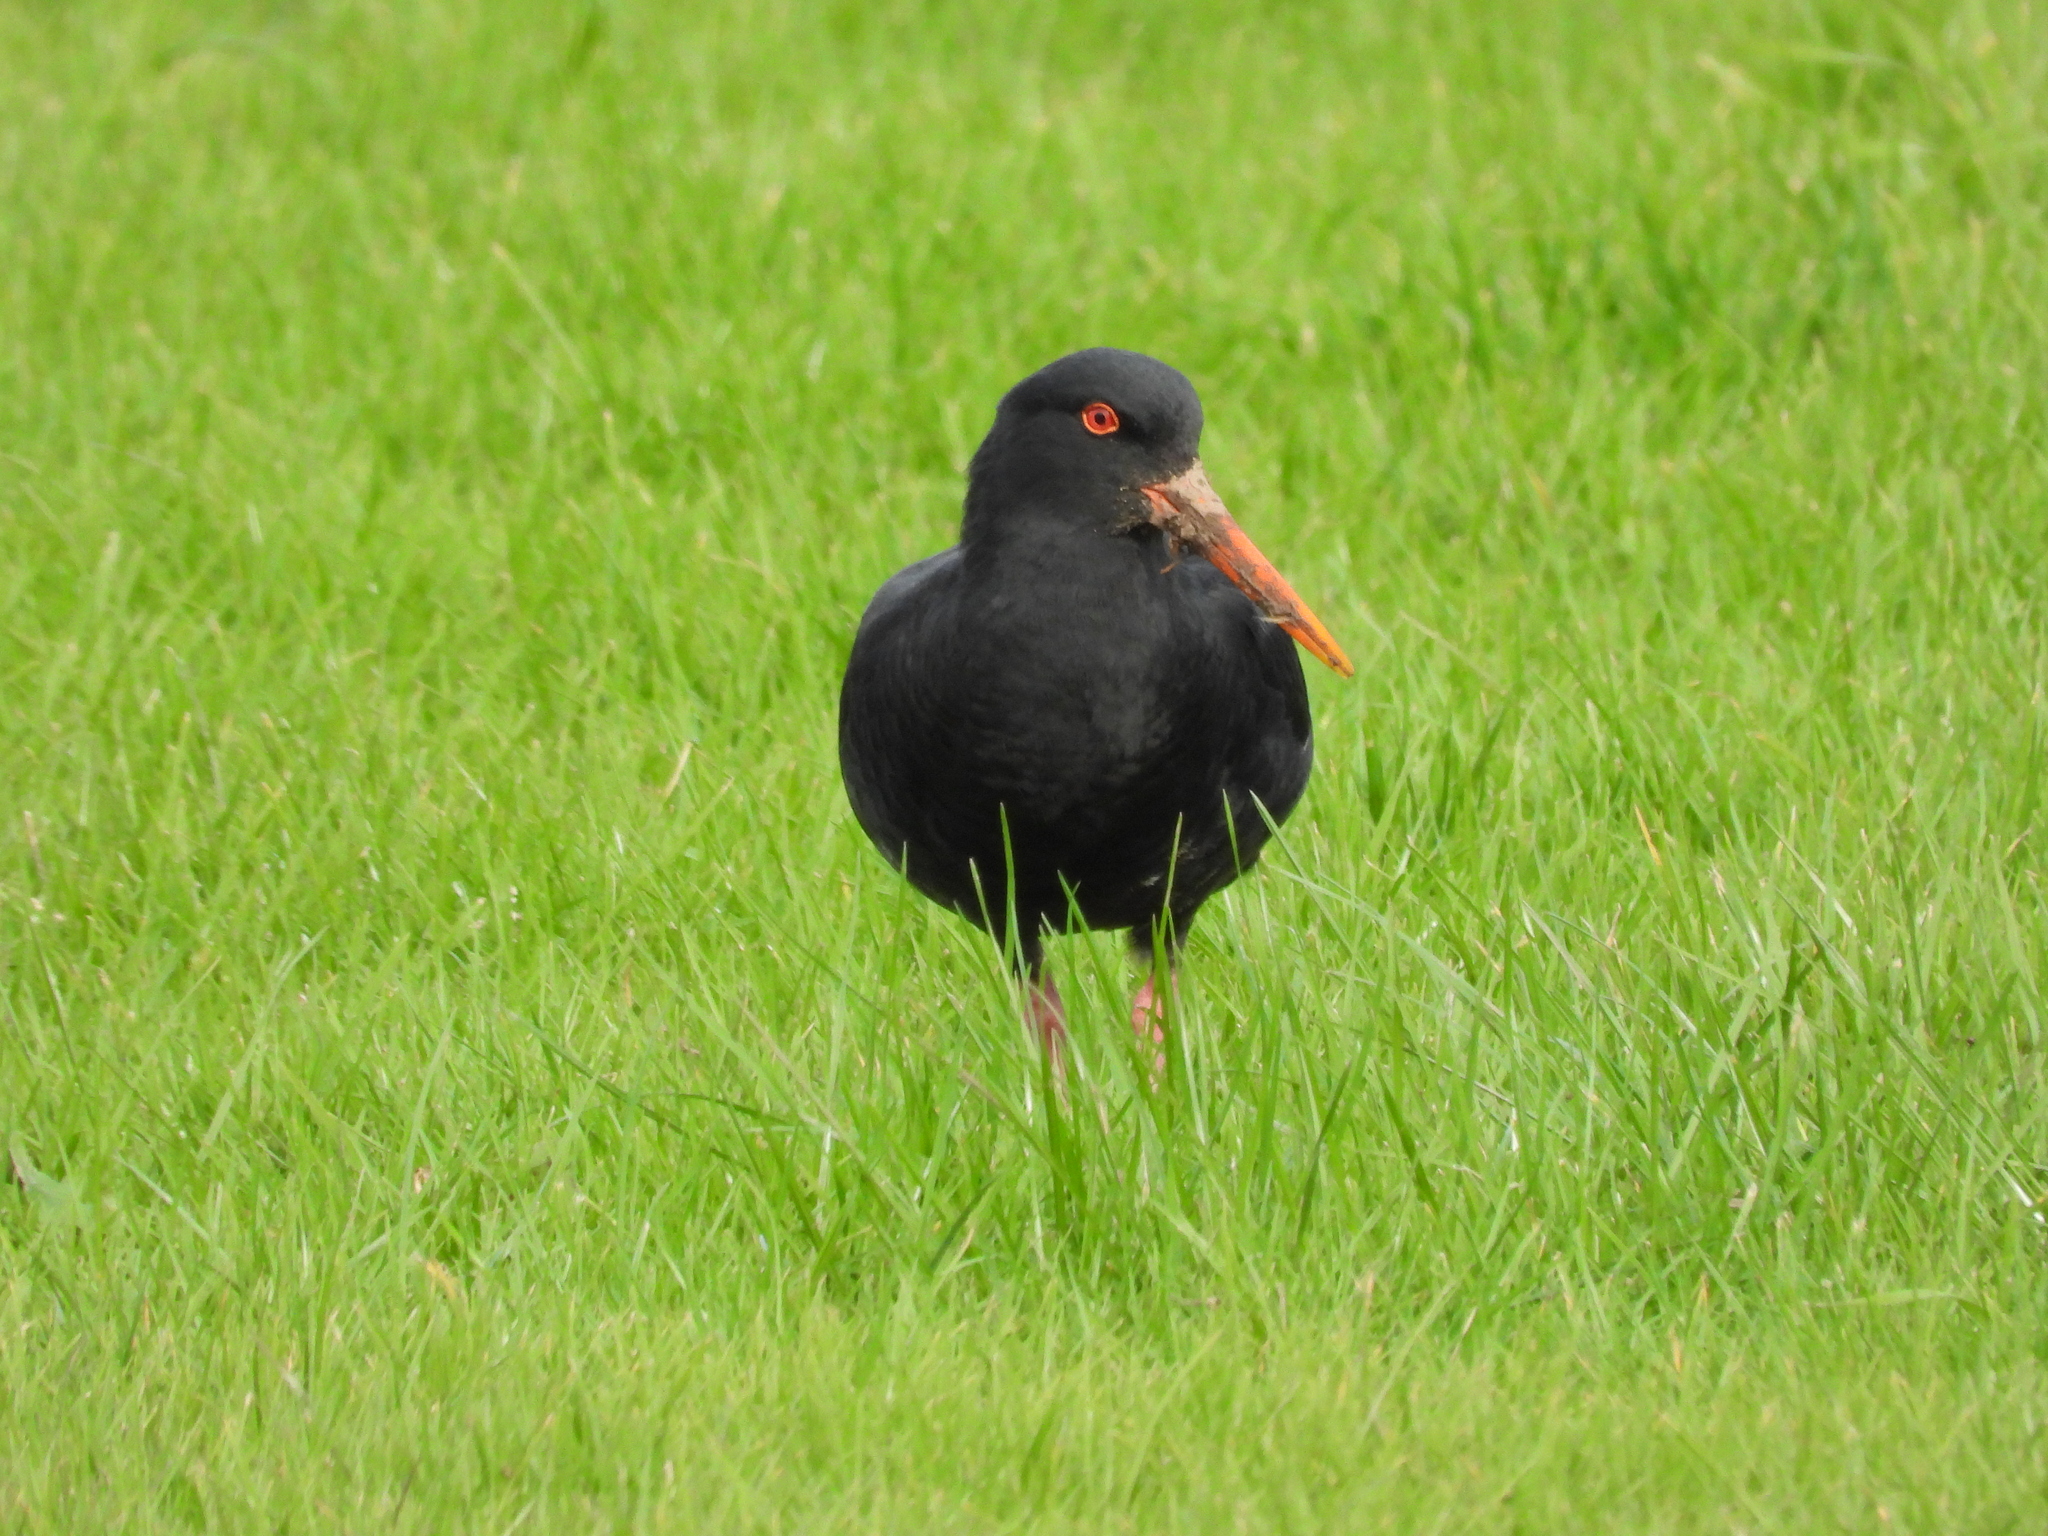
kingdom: Animalia
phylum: Chordata
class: Aves
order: Charadriiformes
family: Haematopodidae
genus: Haematopus
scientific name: Haematopus unicolor
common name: Variable oystercatcher
